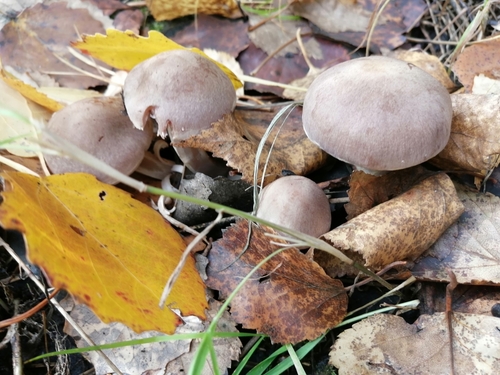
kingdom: Fungi
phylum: Basidiomycota
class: Agaricomycetes
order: Agaricales
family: Cortinariaceae
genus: Cortinarius
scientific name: Cortinarius
